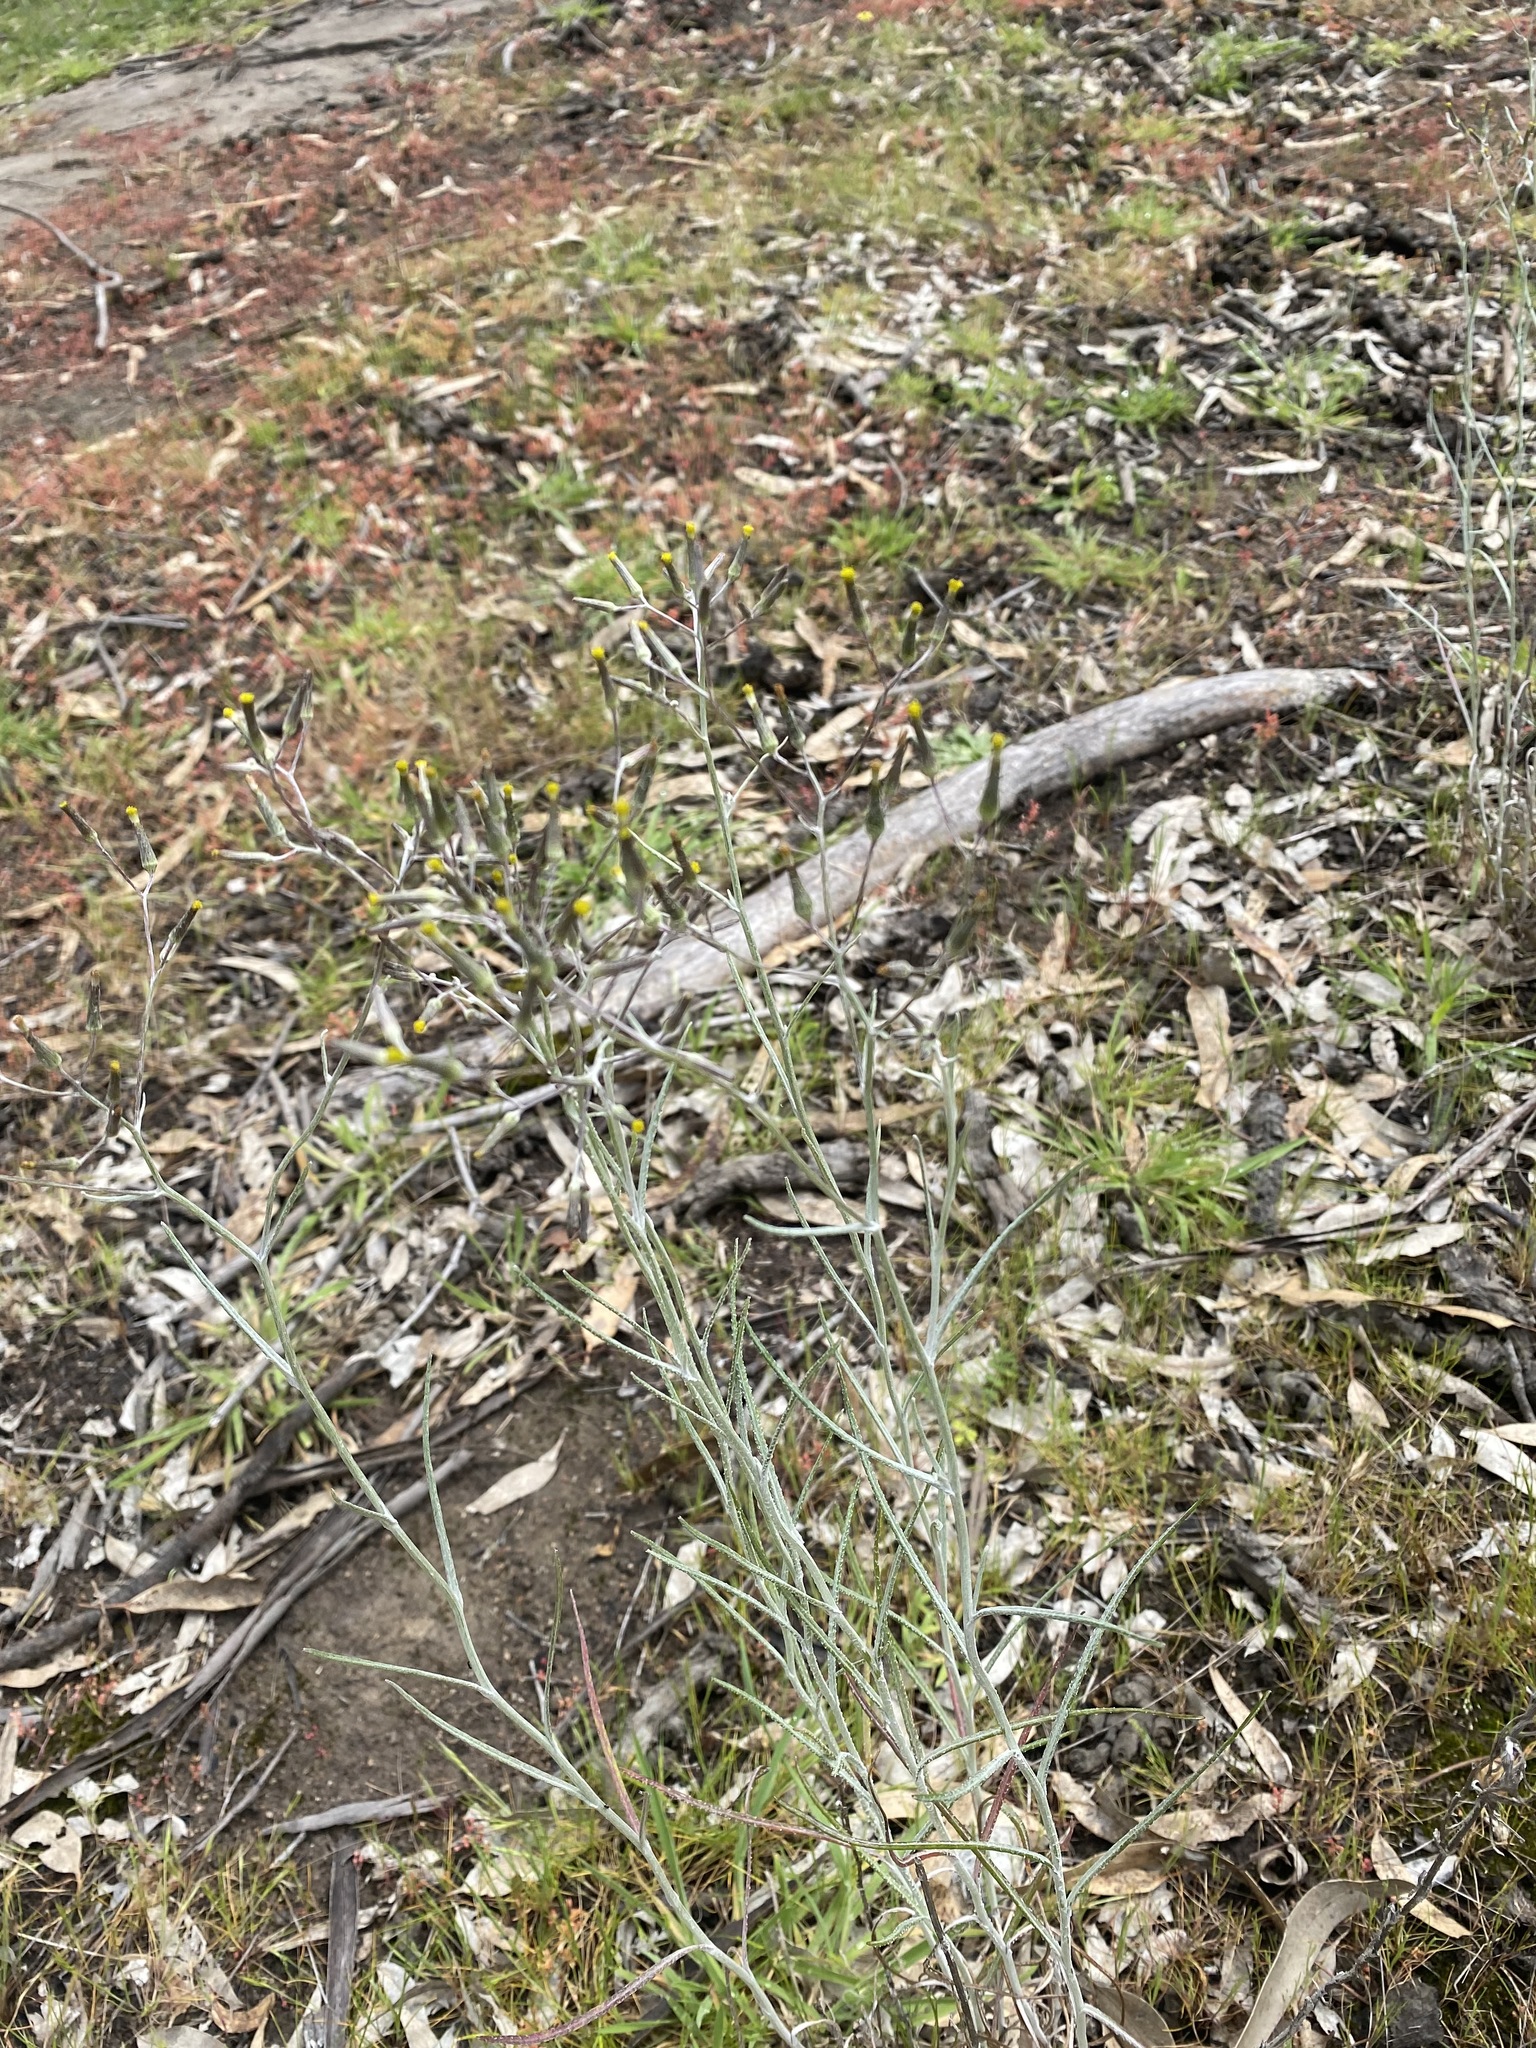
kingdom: Plantae
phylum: Tracheophyta
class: Magnoliopsida
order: Asterales
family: Asteraceae
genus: Senecio
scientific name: Senecio quadridentatus
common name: Cotton fireweed
